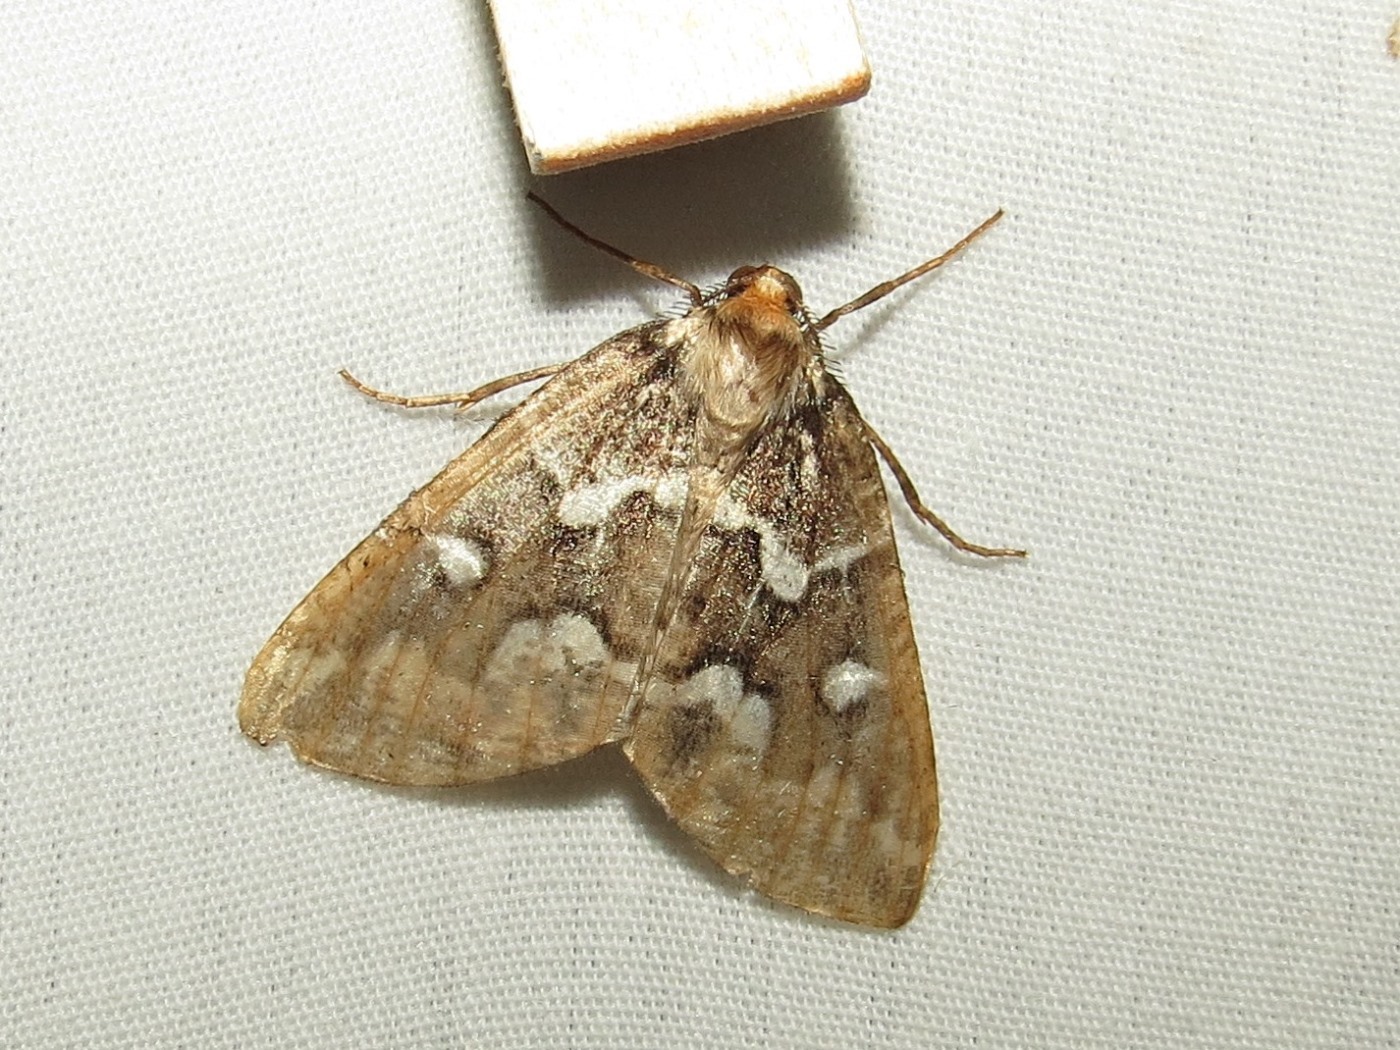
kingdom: Animalia
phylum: Arthropoda
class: Insecta
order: Lepidoptera
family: Geometridae
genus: Caripeta
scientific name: Caripeta divisata
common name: Gray spruce looper
